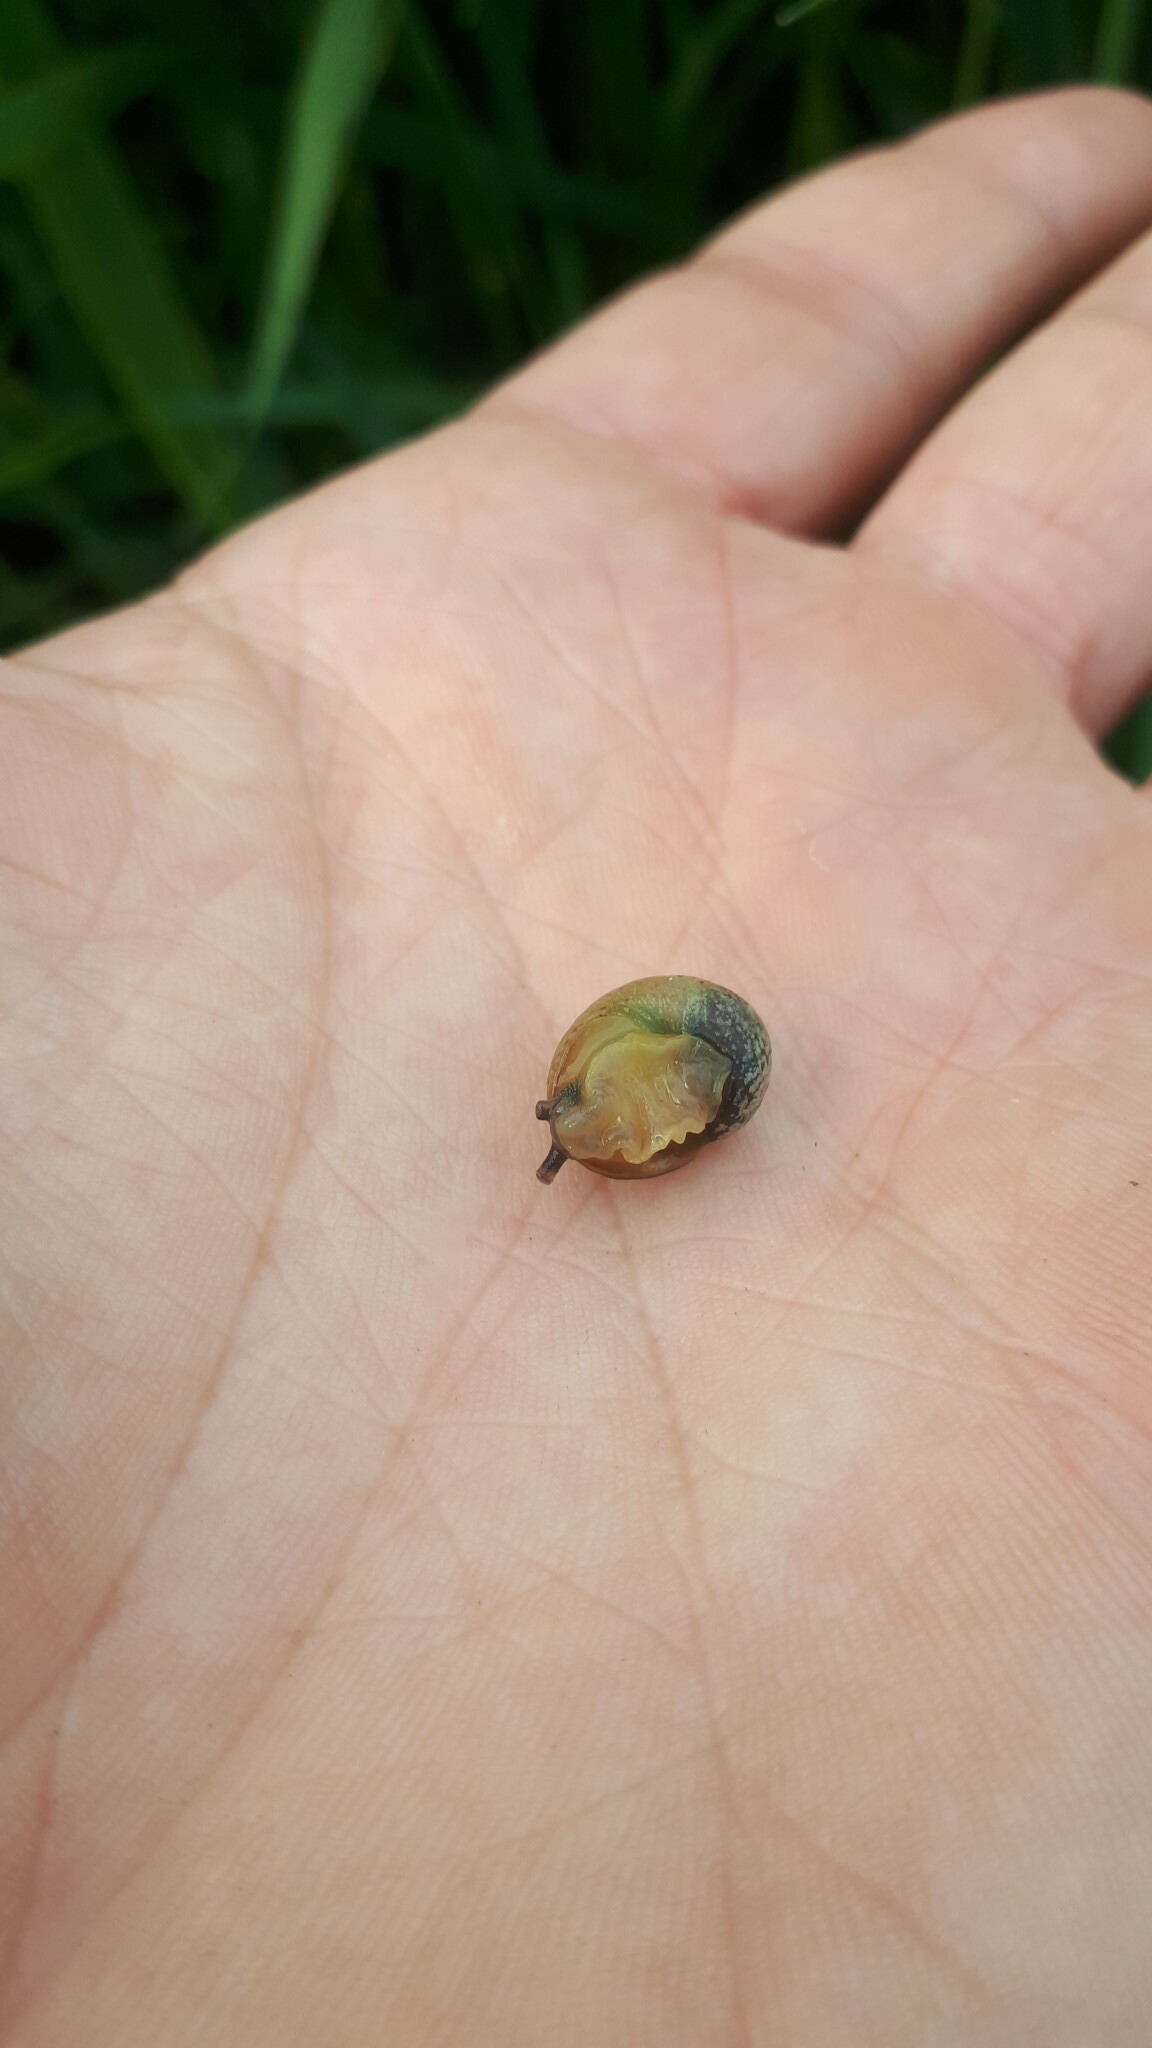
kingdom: Animalia
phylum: Mollusca
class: Gastropoda
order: Stylommatophora
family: Helicidae
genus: Cornu
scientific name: Cornu aspersum
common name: Brown garden snail
